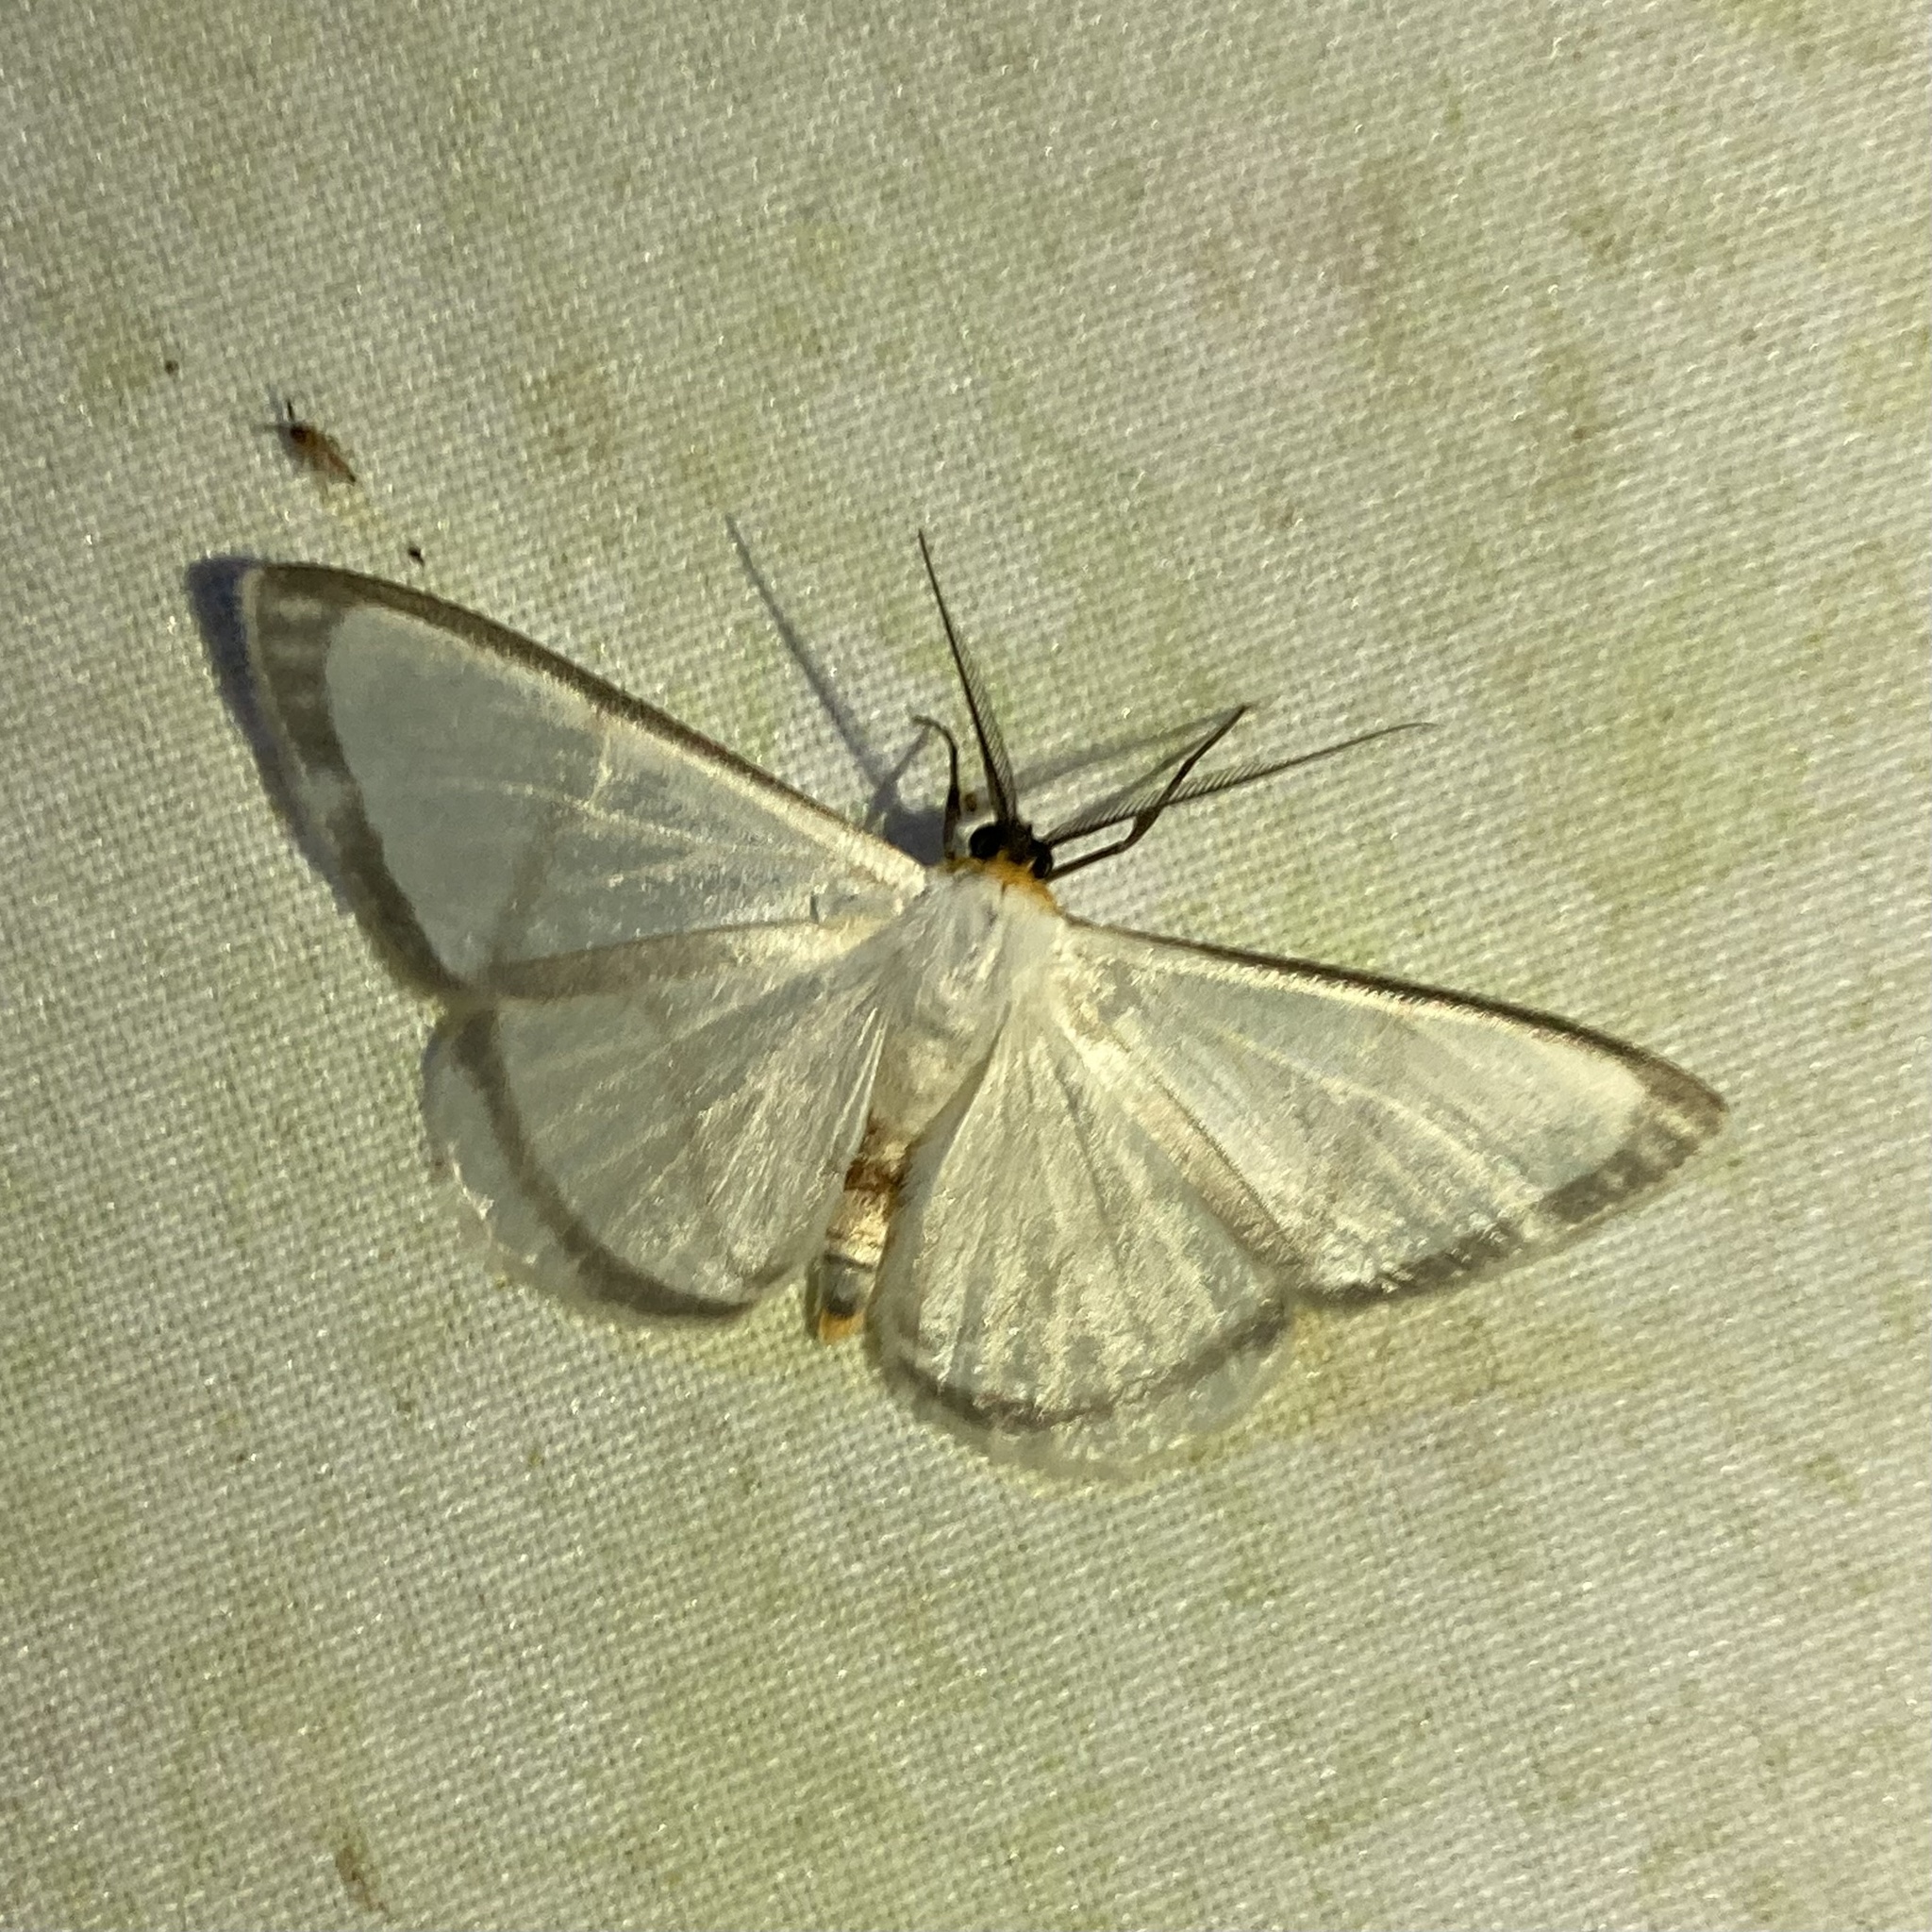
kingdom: Animalia
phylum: Arthropoda
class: Insecta
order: Lepidoptera
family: Geometridae
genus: Perigramma
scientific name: Perigramma repetita
